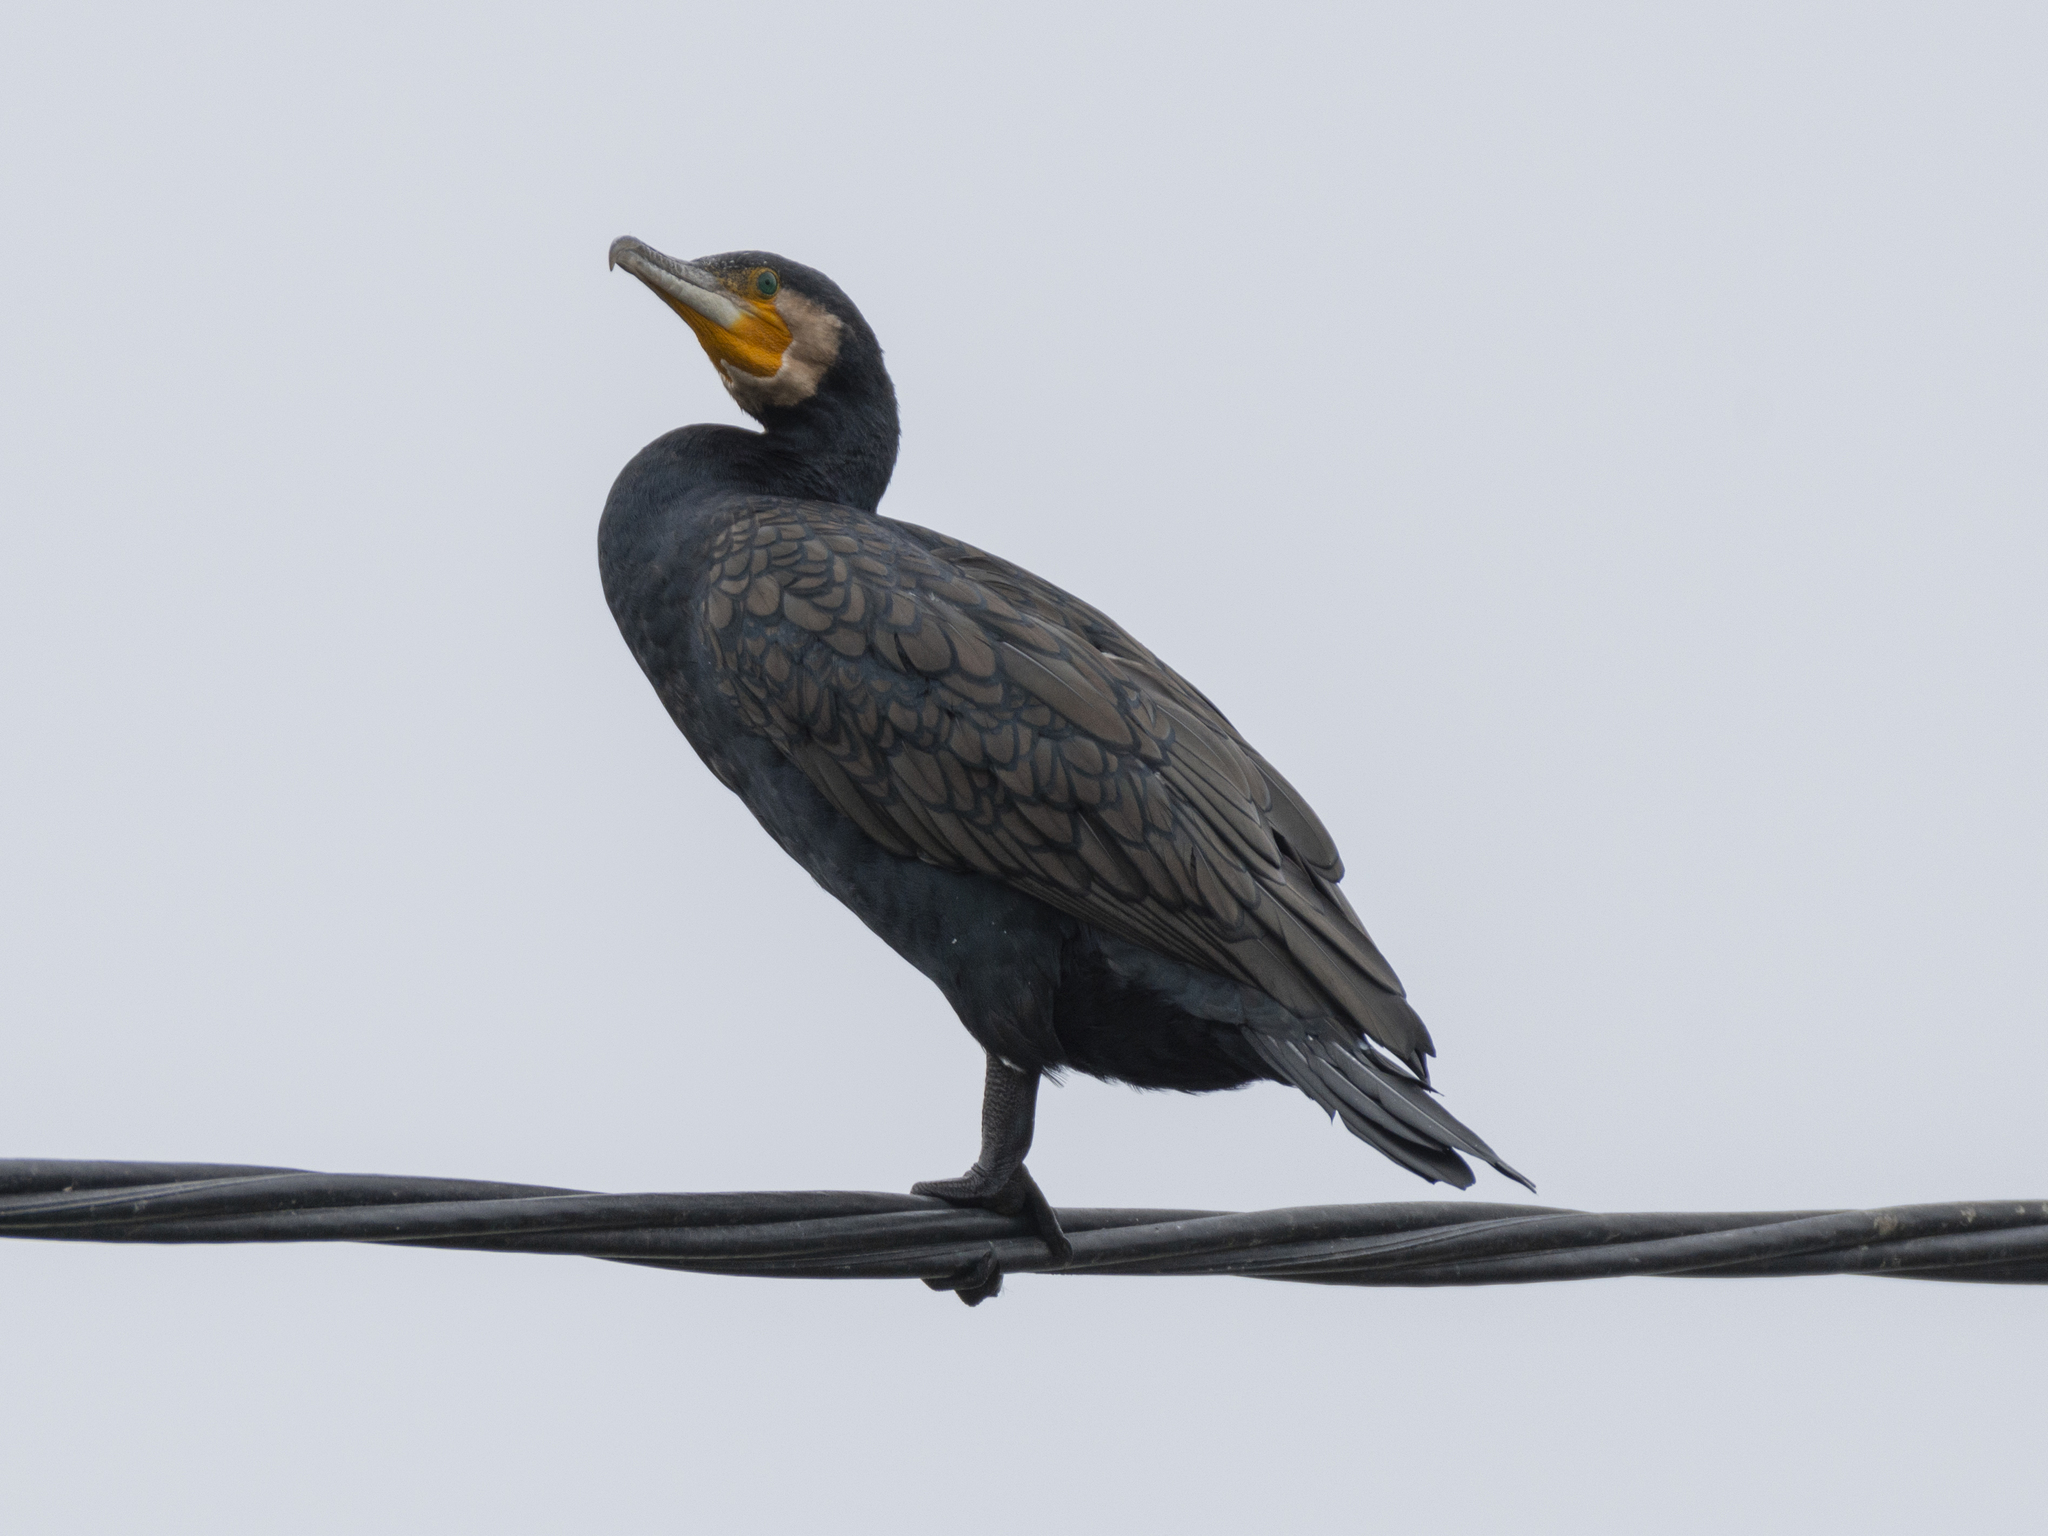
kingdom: Animalia
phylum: Chordata
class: Aves
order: Suliformes
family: Phalacrocoracidae
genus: Phalacrocorax
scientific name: Phalacrocorax carbo
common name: Great cormorant
